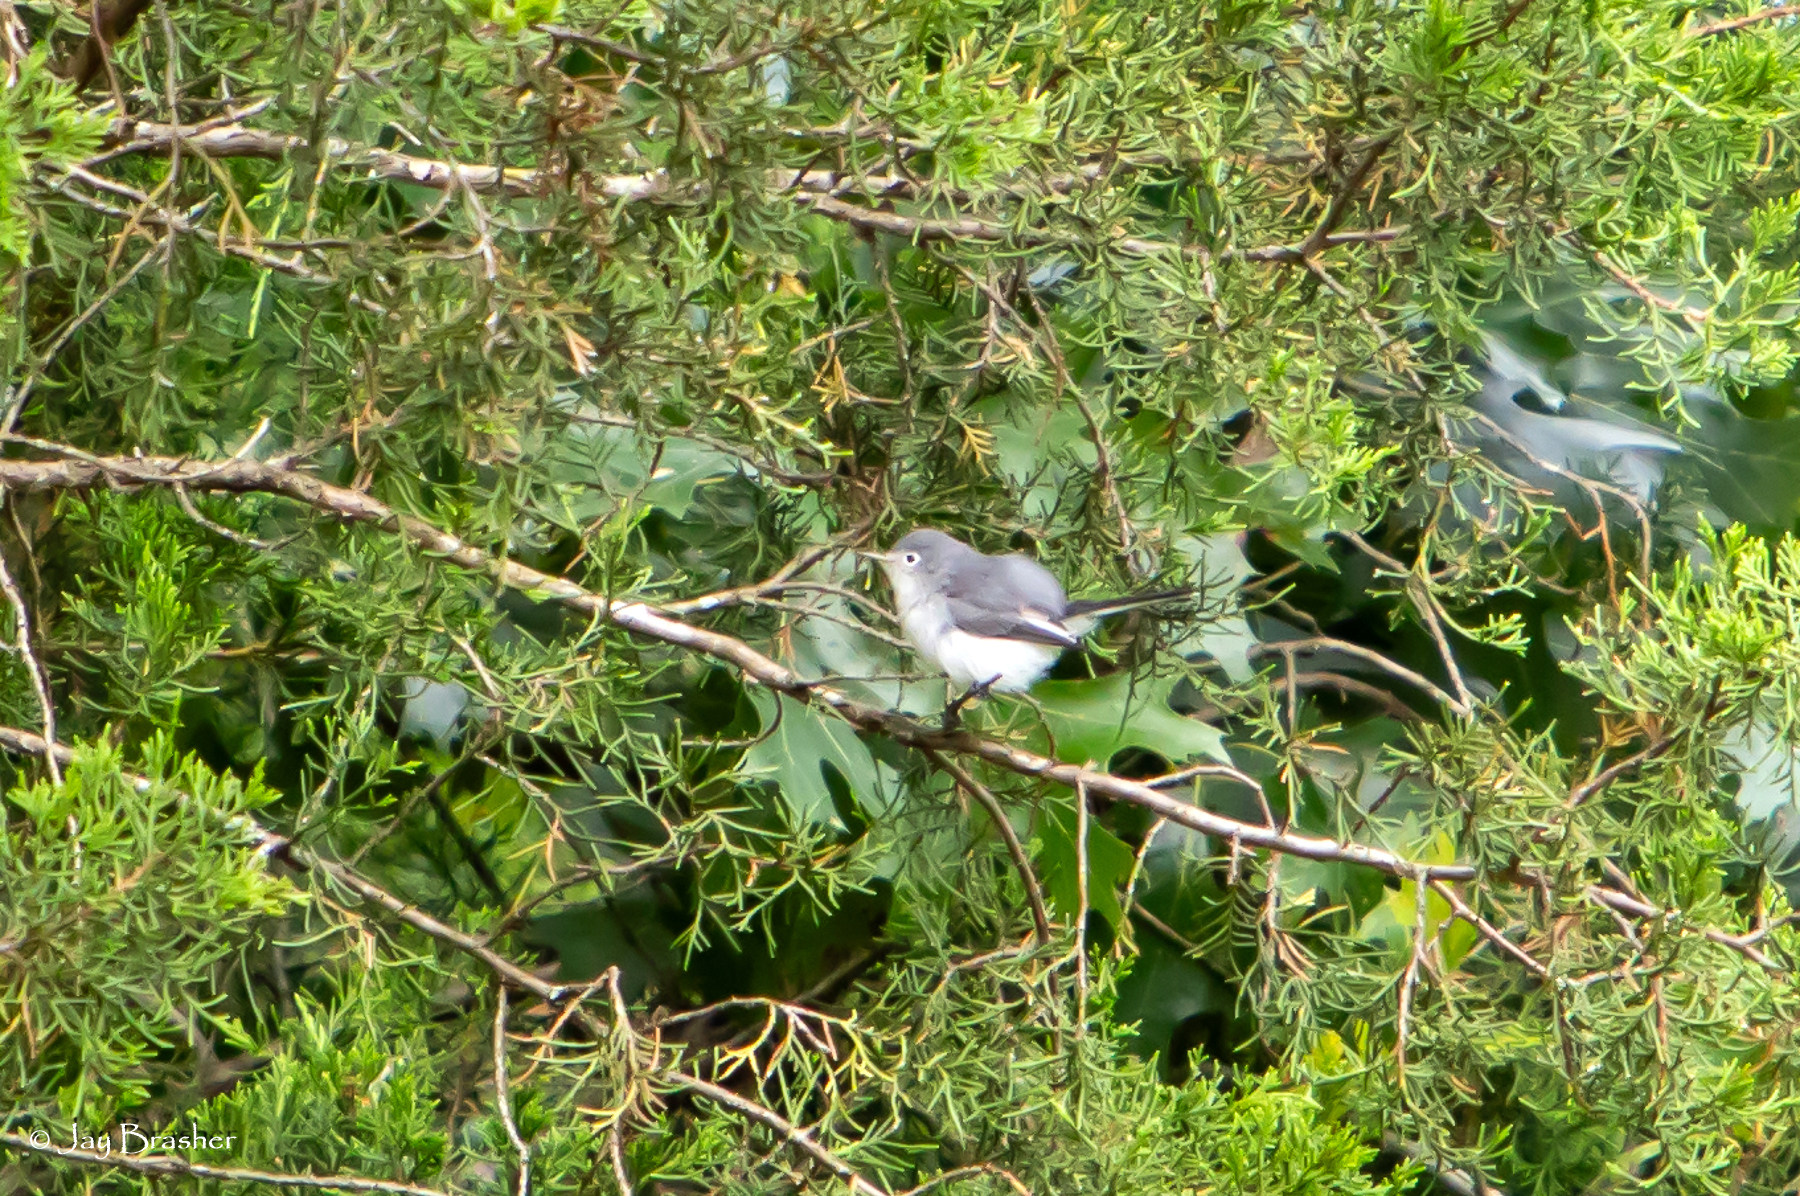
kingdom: Animalia
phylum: Chordata
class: Aves
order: Passeriformes
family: Polioptilidae
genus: Polioptila
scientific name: Polioptila caerulea
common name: Blue-gray gnatcatcher
